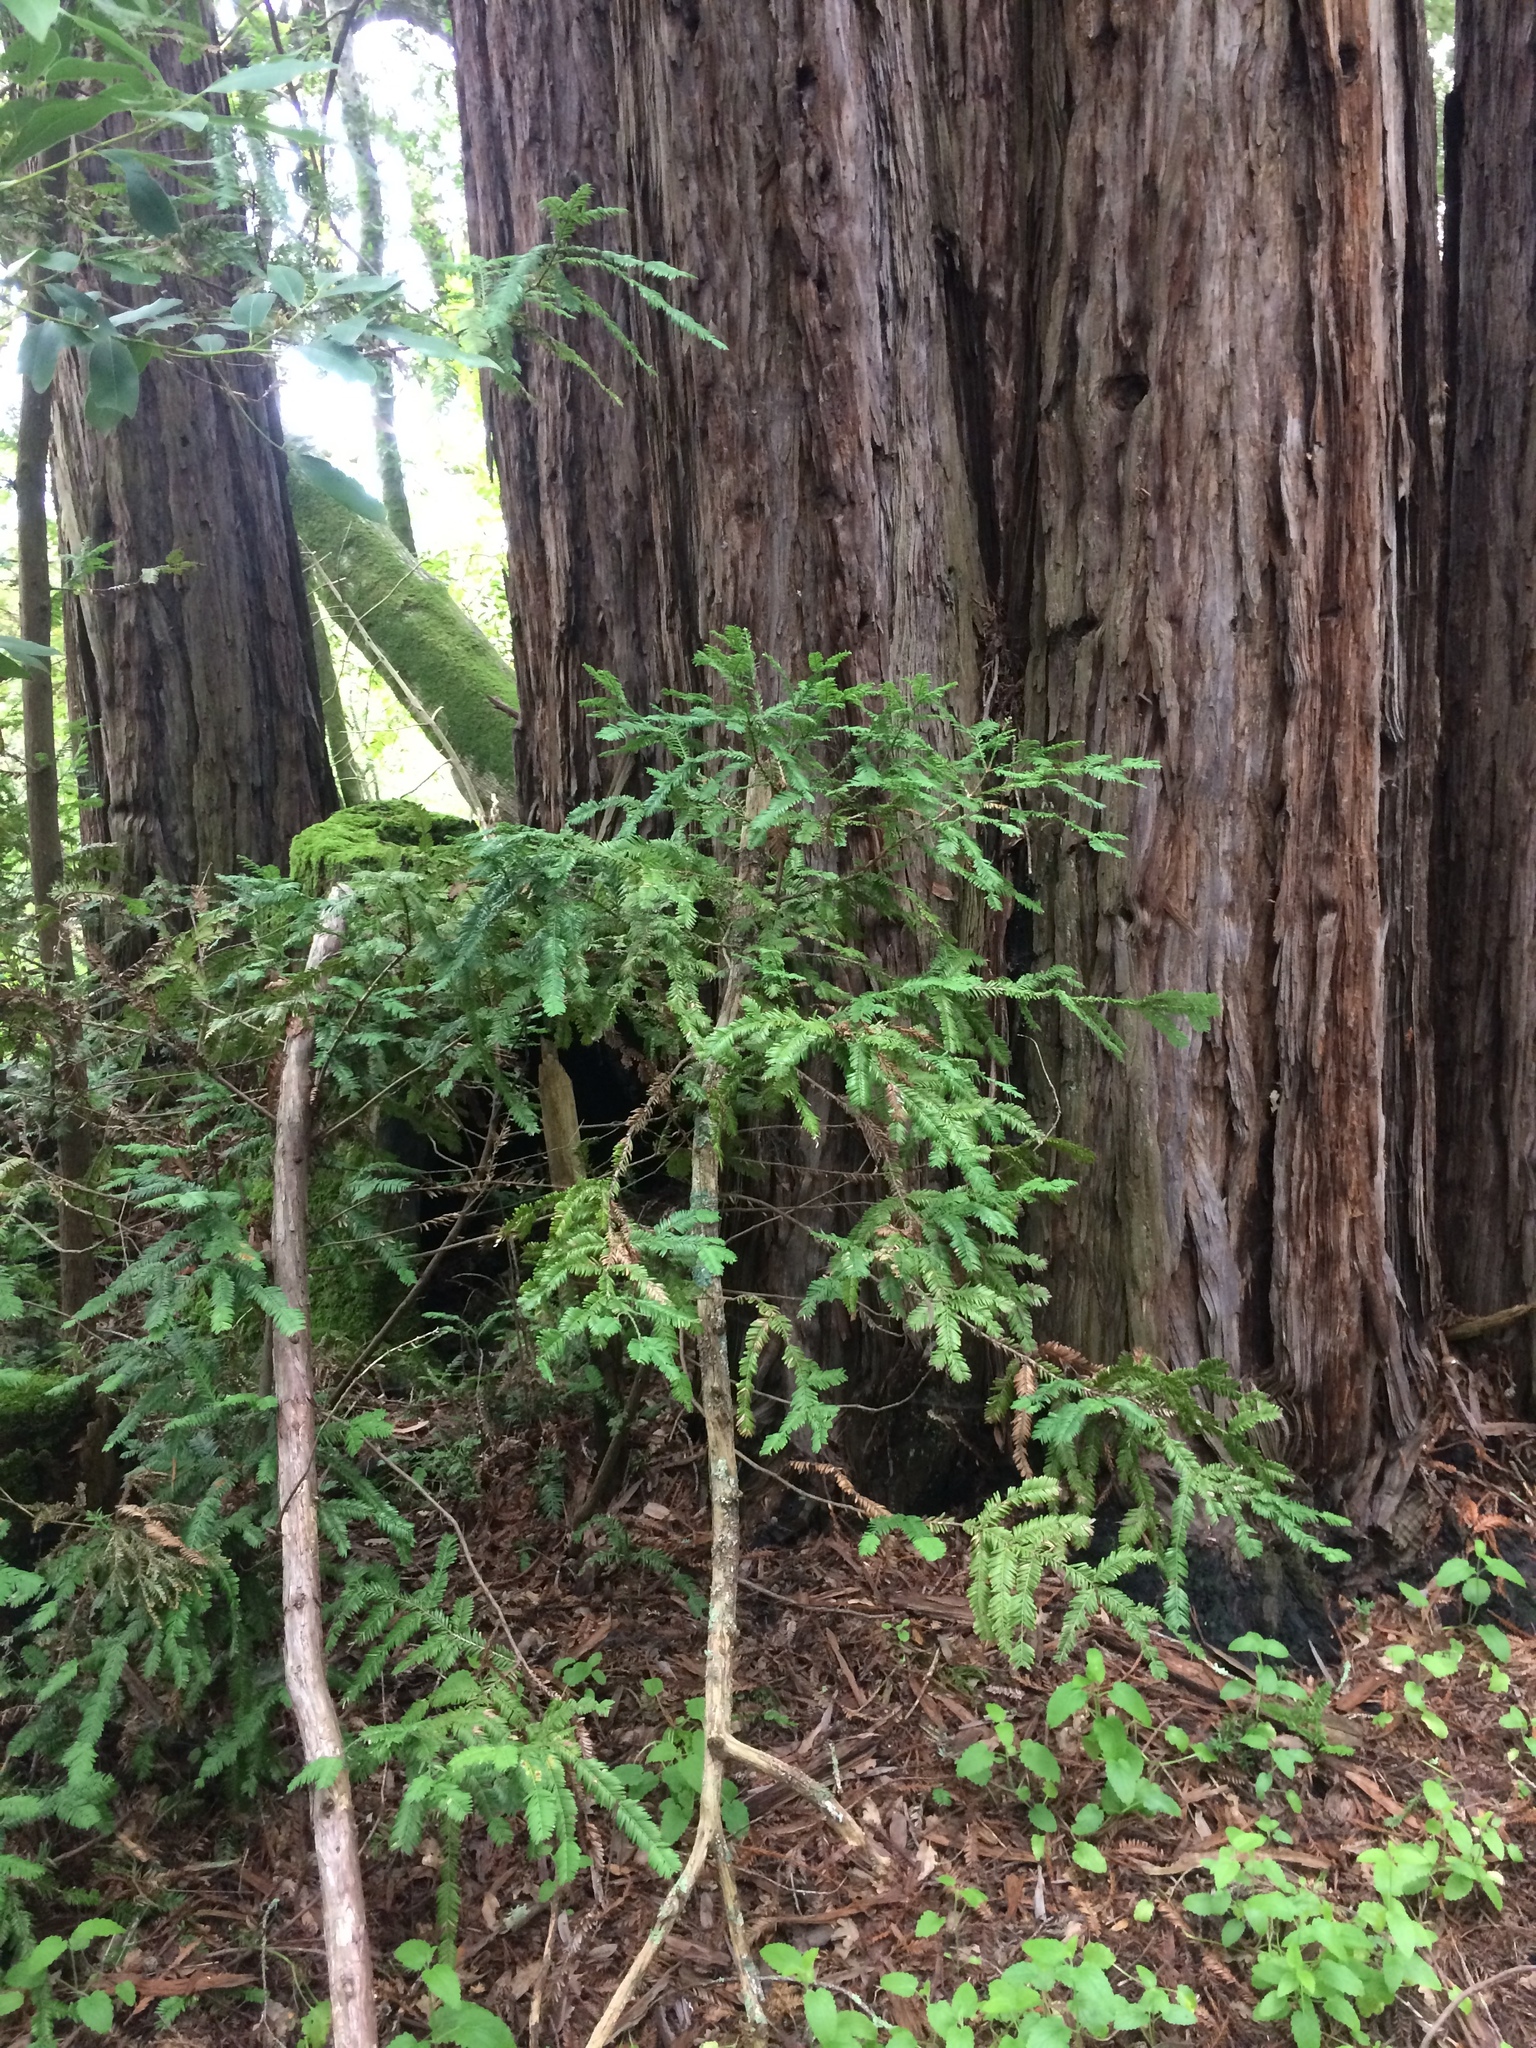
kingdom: Plantae
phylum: Tracheophyta
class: Pinopsida
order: Pinales
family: Cupressaceae
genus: Sequoia
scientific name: Sequoia sempervirens
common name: Coast redwood
